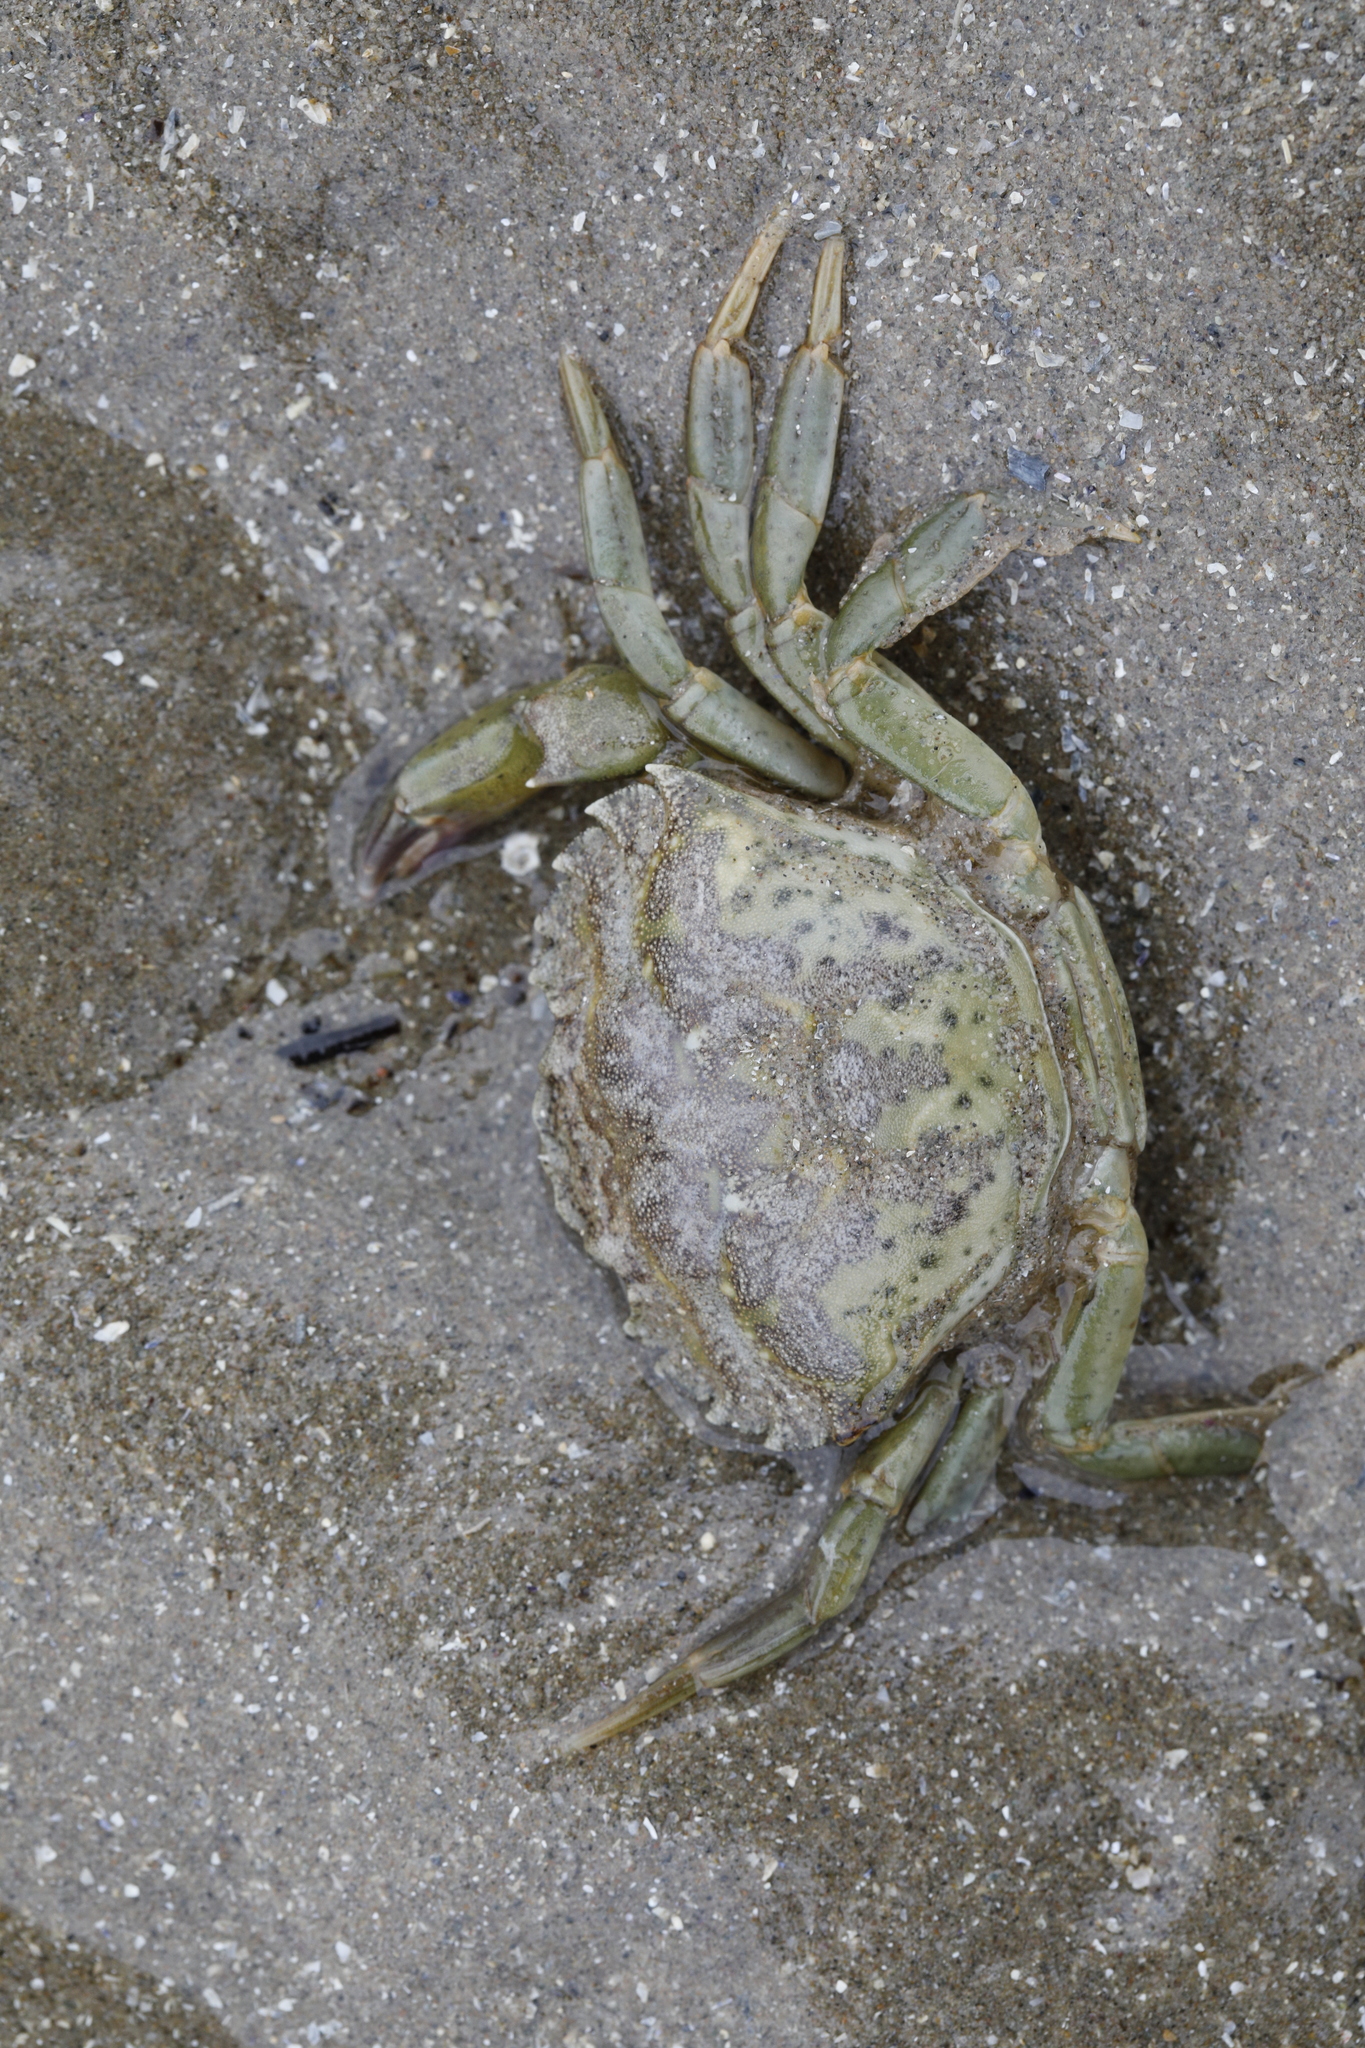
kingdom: Animalia
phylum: Arthropoda
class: Malacostraca
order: Decapoda
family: Carcinidae
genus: Carcinus
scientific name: Carcinus maenas
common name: European green crab
